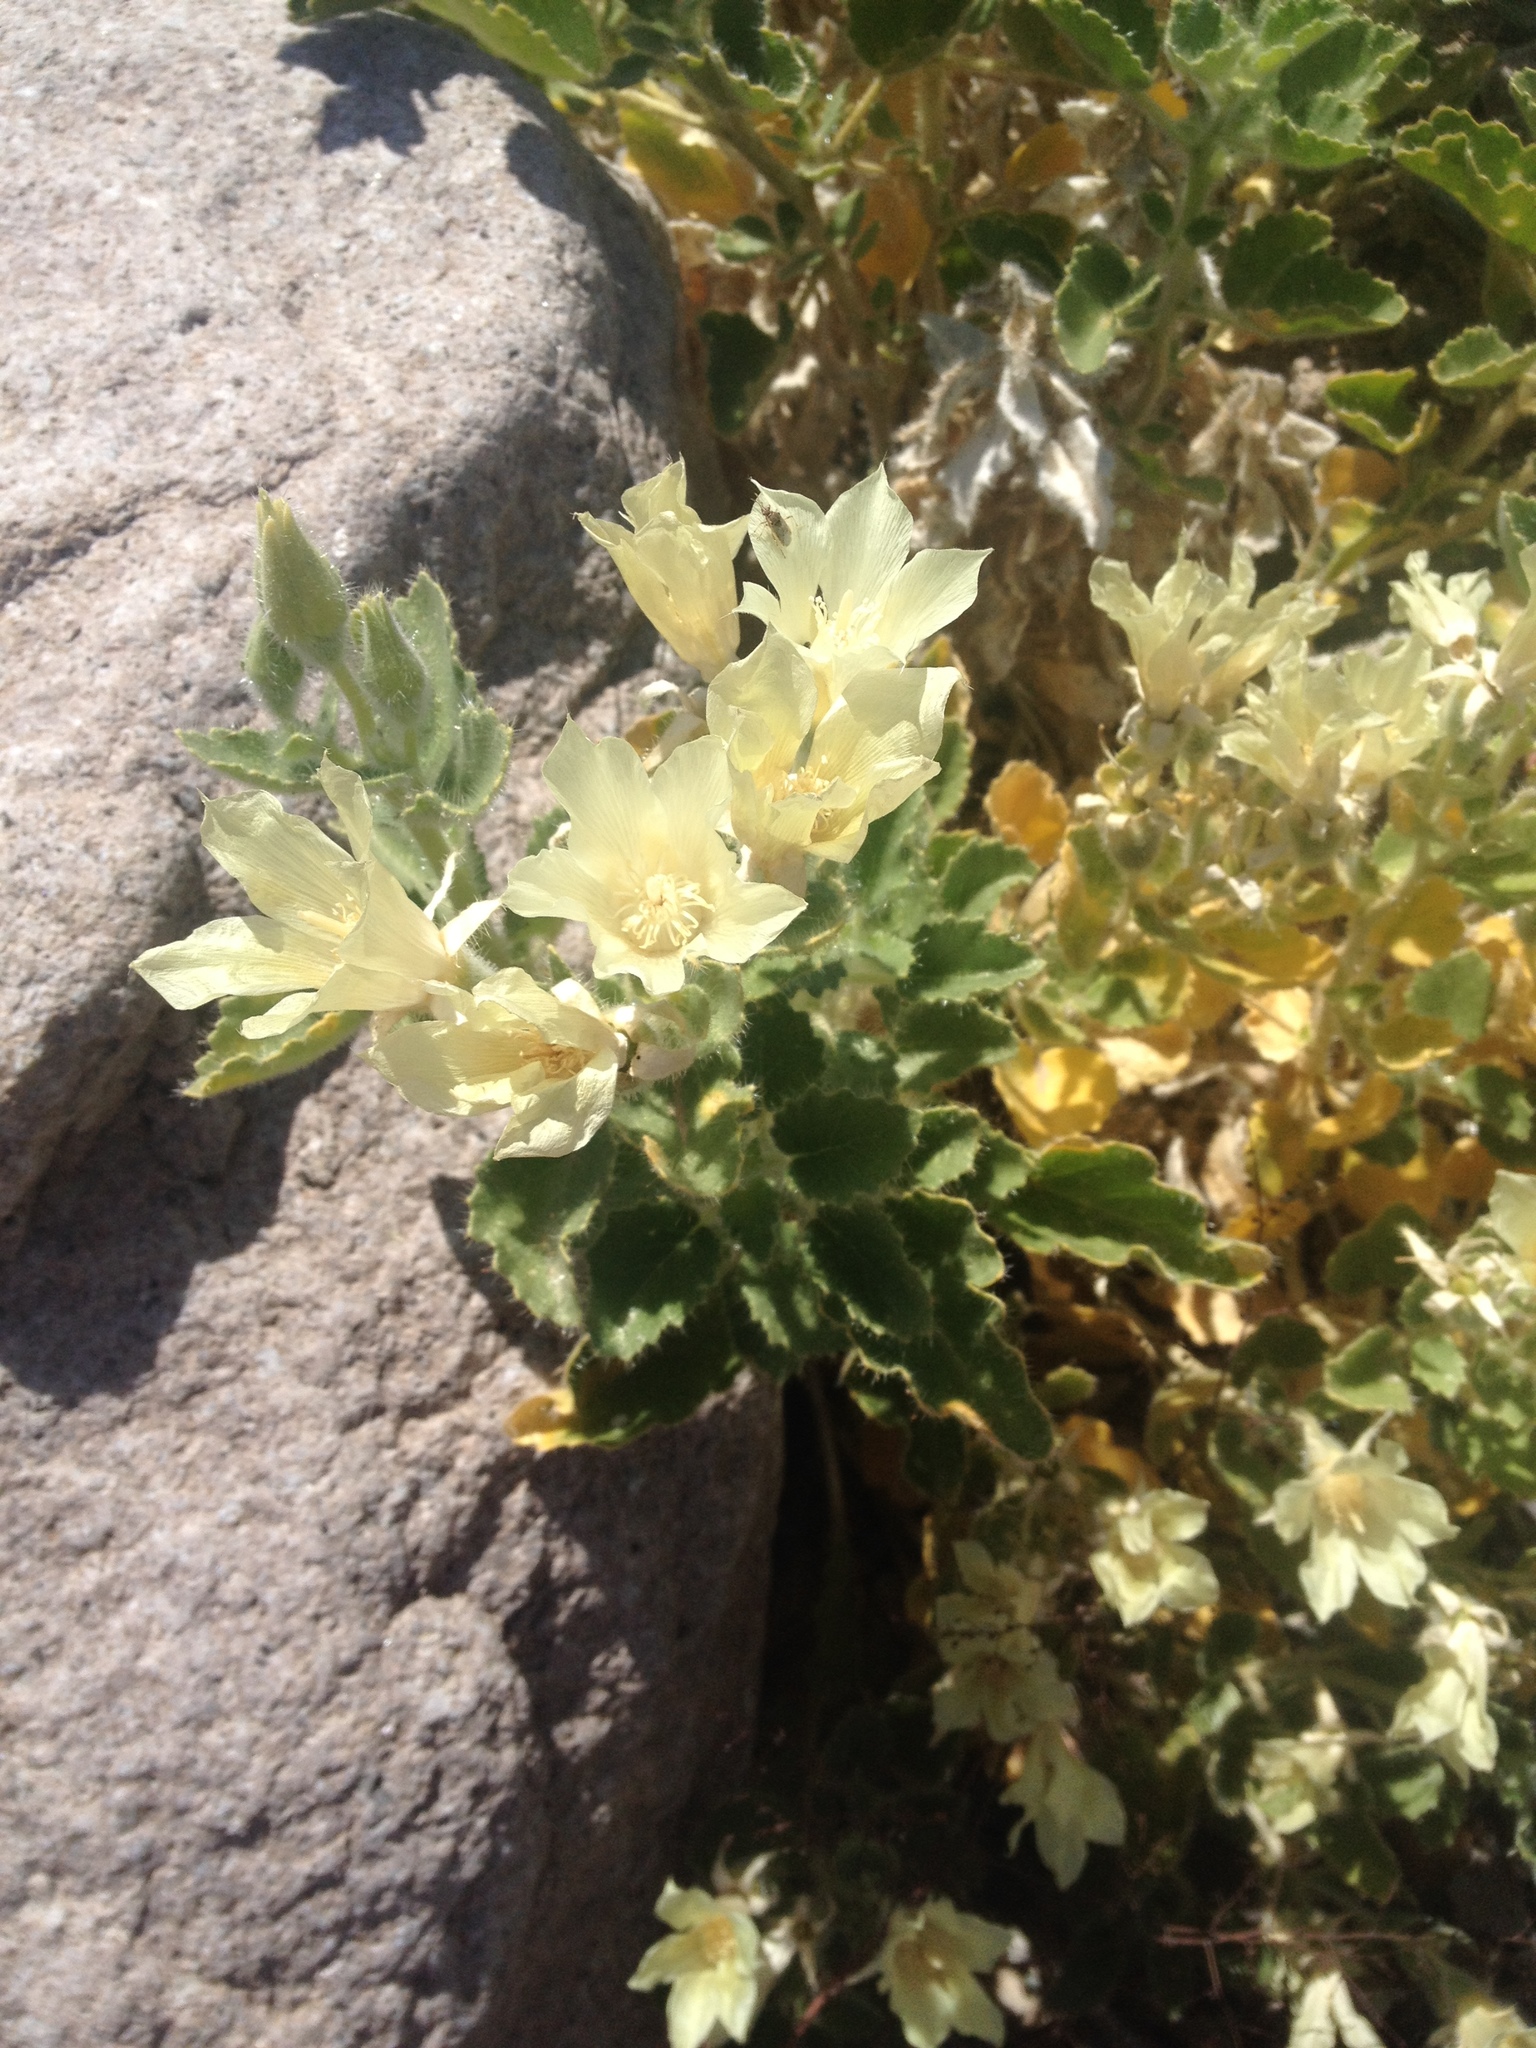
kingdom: Plantae
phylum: Tracheophyta
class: Magnoliopsida
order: Cornales
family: Loasaceae
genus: Eucnide
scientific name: Eucnide urens
